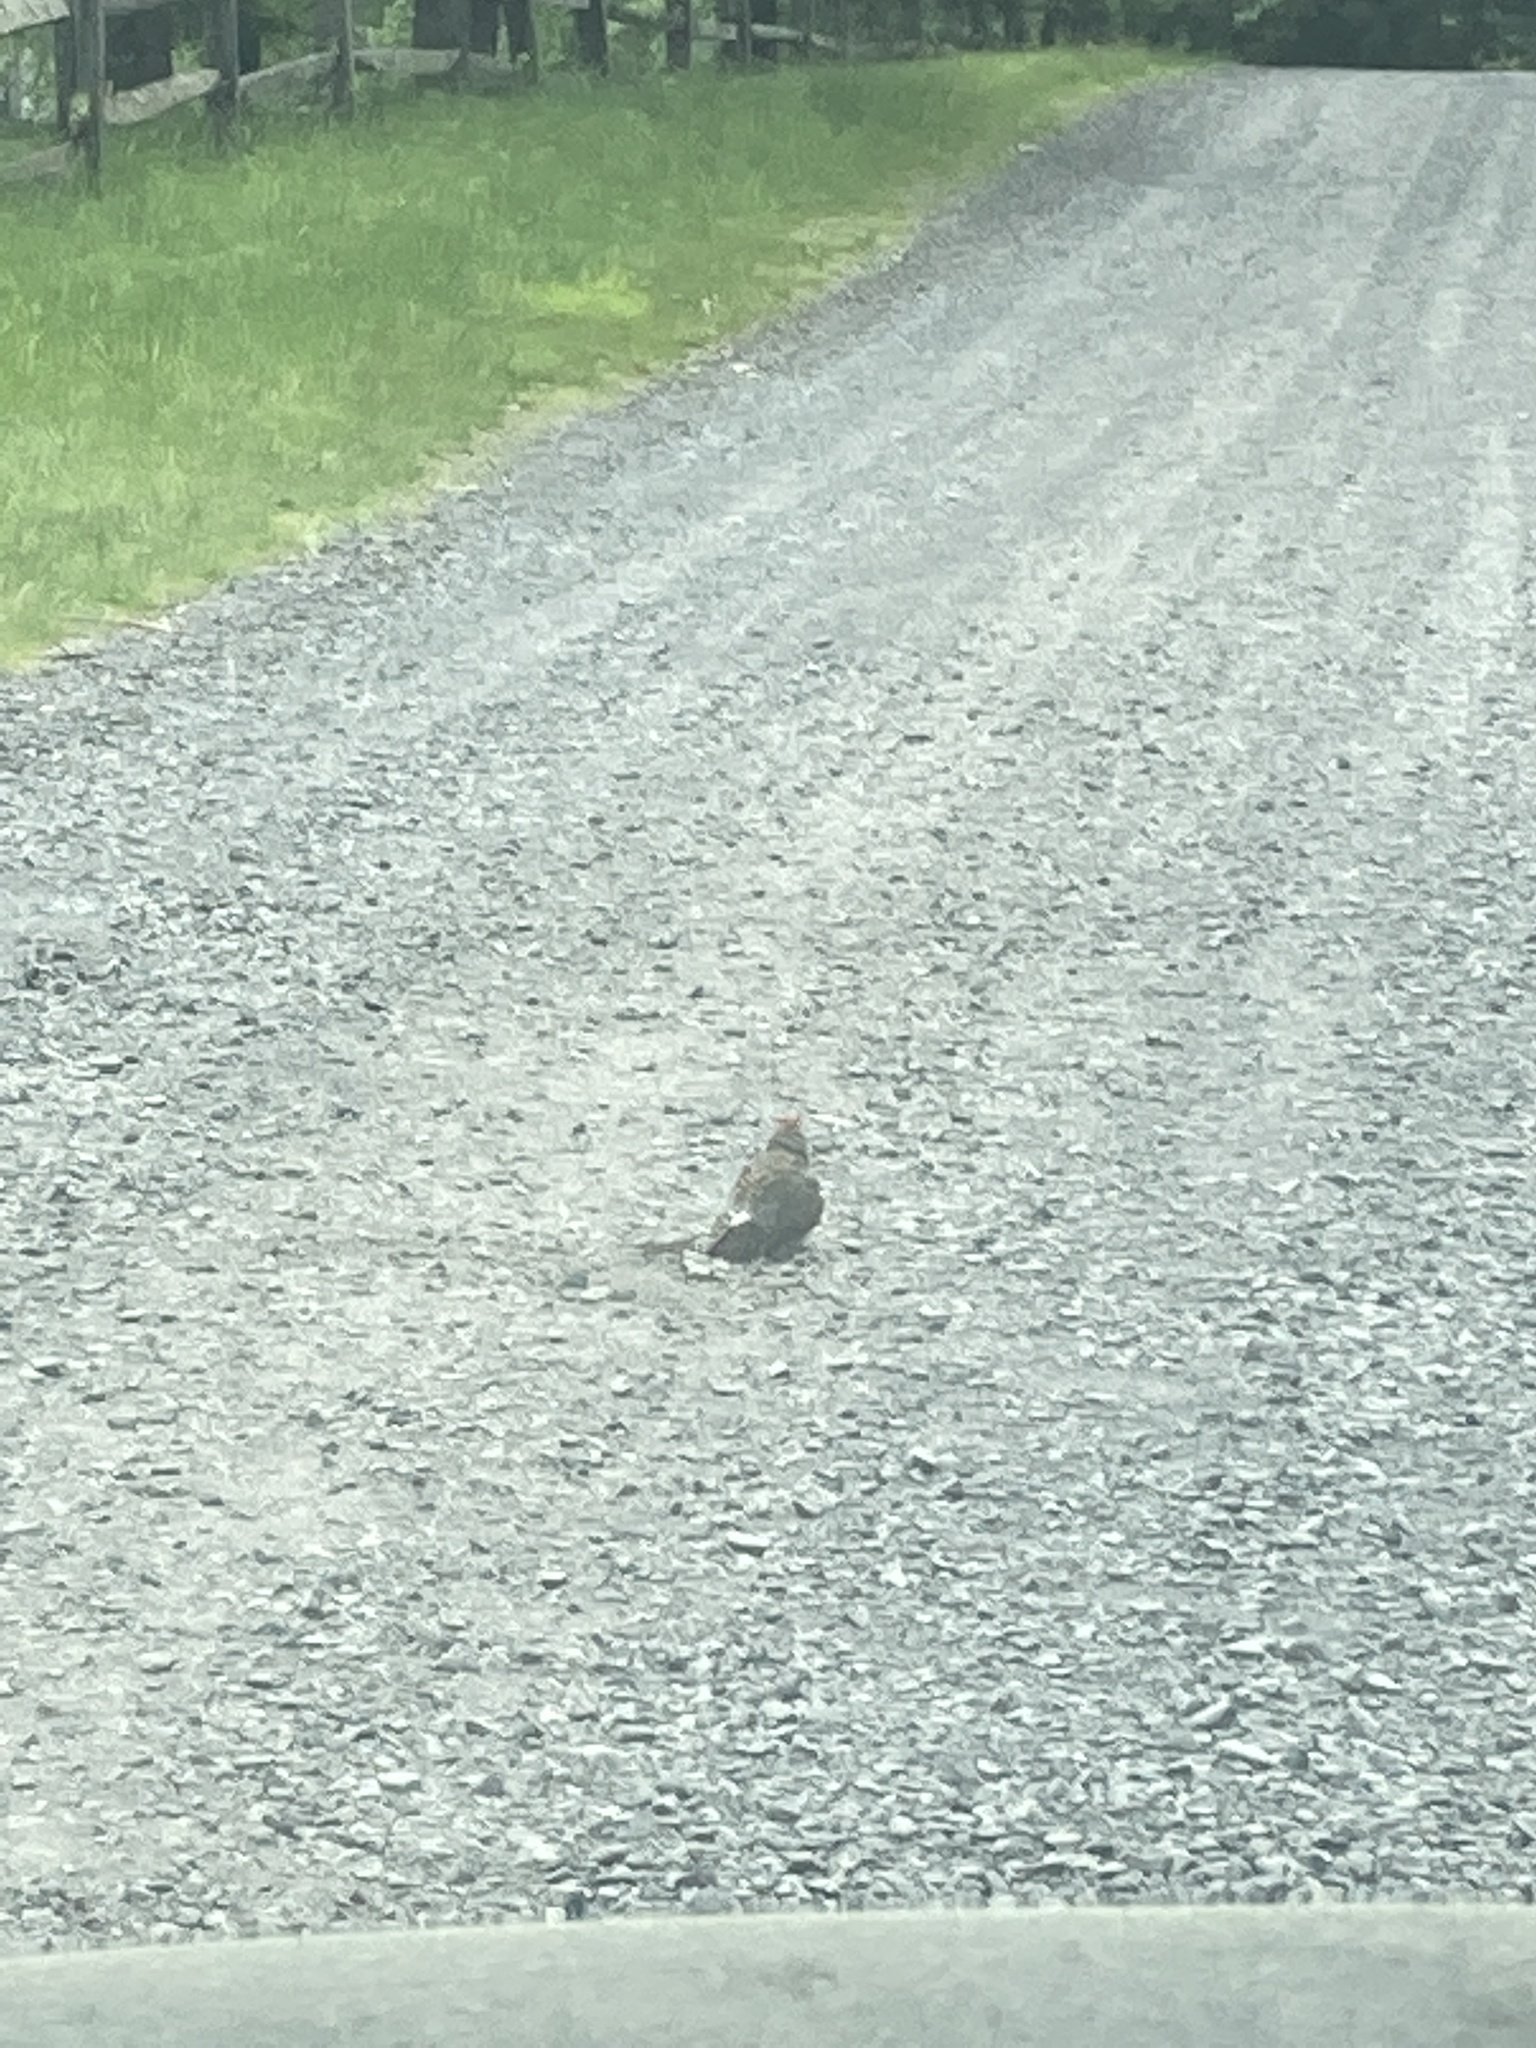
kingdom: Animalia
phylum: Chordata
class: Aves
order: Piciformes
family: Picidae
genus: Colaptes
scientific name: Colaptes auratus
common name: Northern flicker
